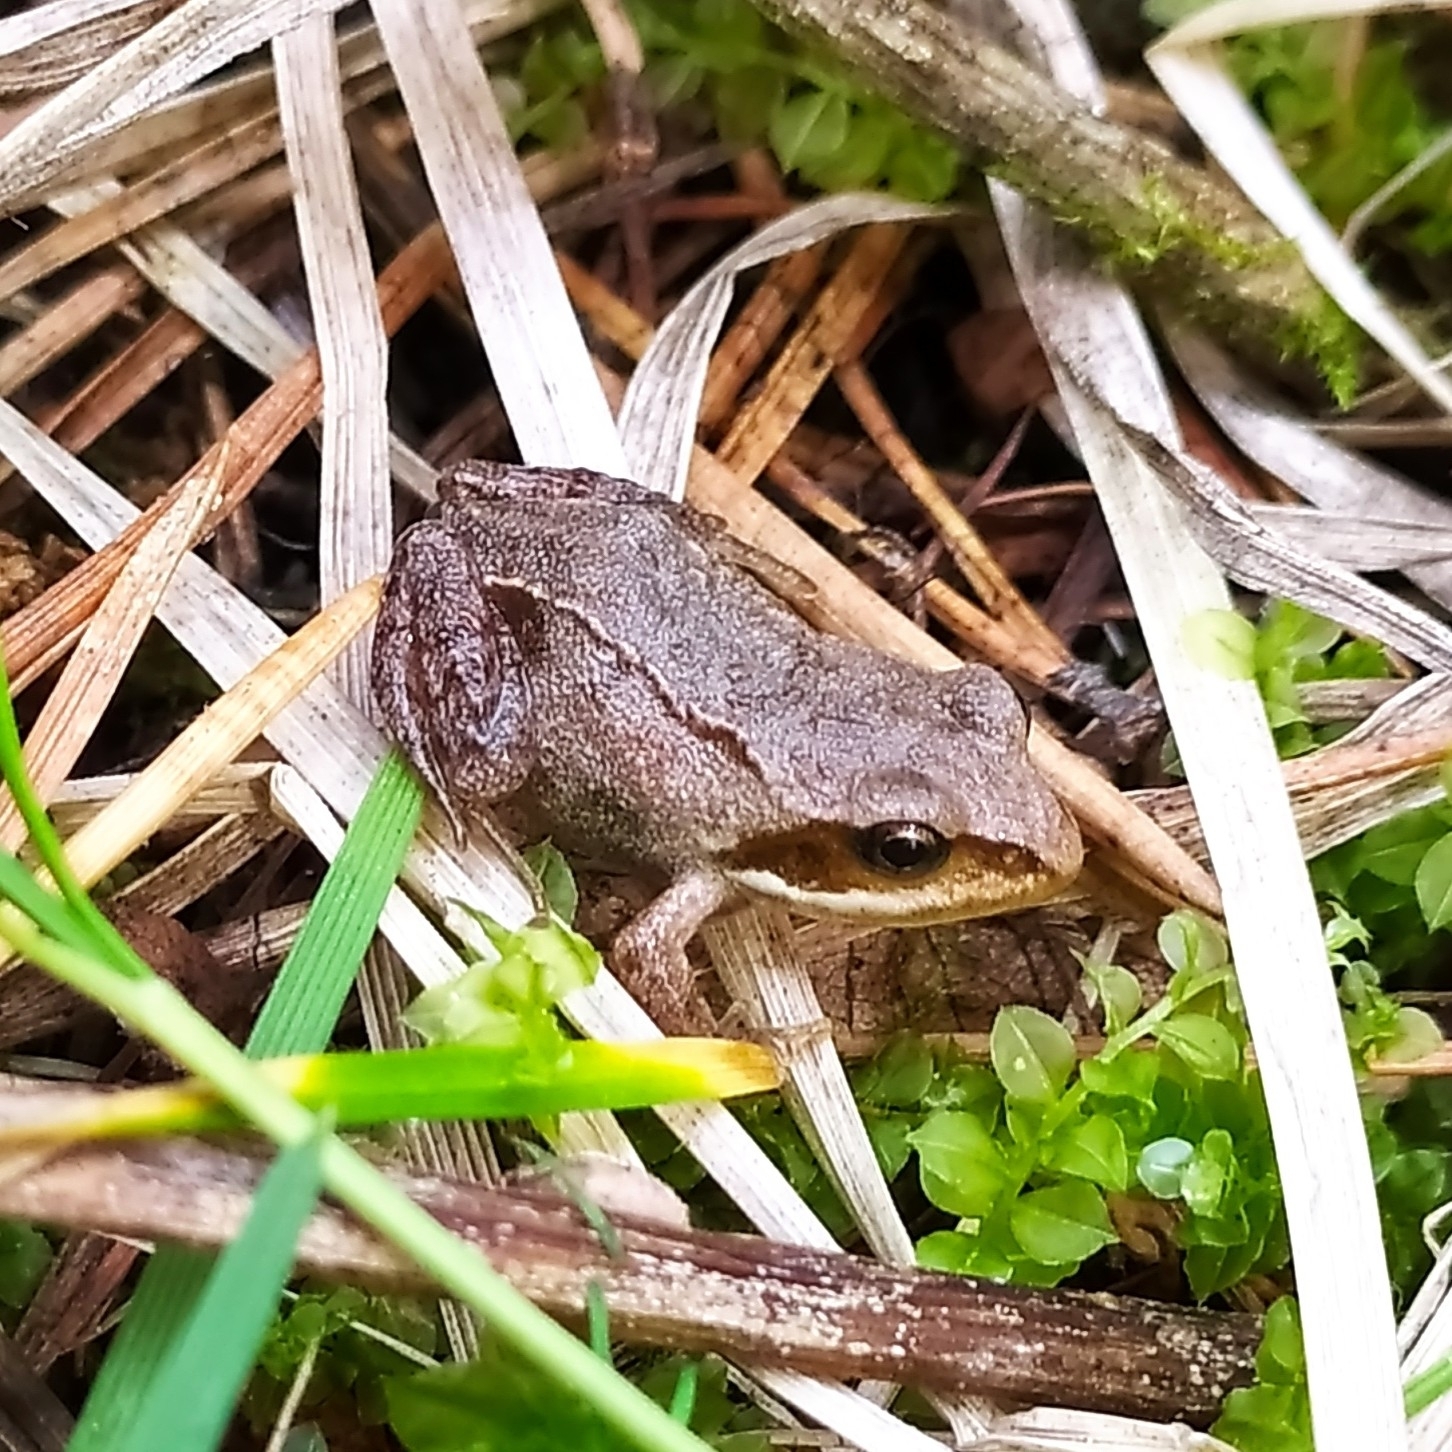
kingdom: Animalia
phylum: Chordata
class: Amphibia
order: Anura
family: Ranidae
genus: Rana
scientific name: Rana temporaria
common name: Common frog
